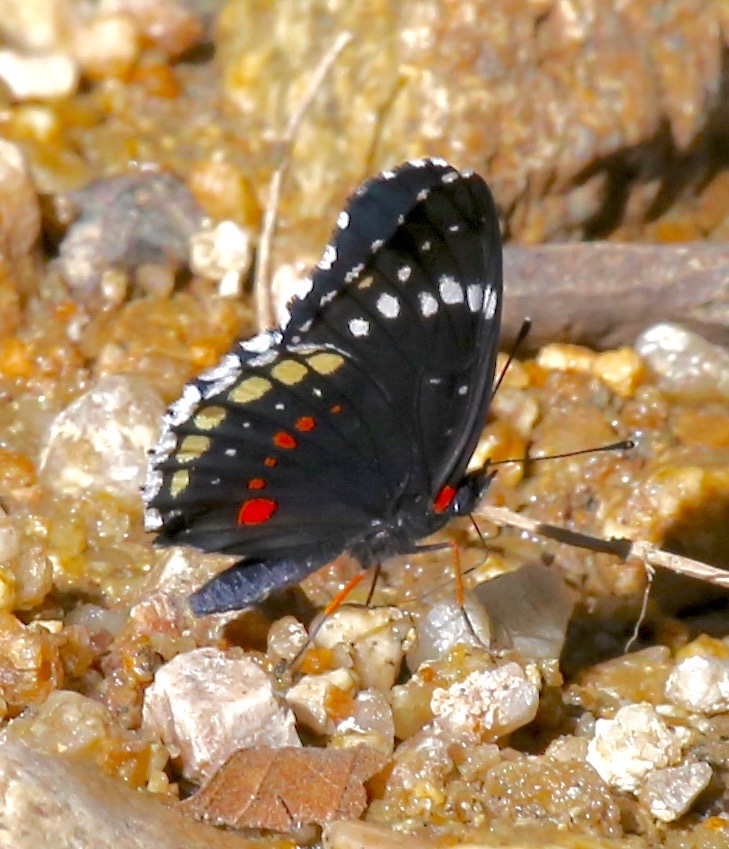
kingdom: Animalia
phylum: Arthropoda
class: Insecta
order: Lepidoptera
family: Nymphalidae
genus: Chlosyne
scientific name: Chlosyne hippodrome
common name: Simple patch
